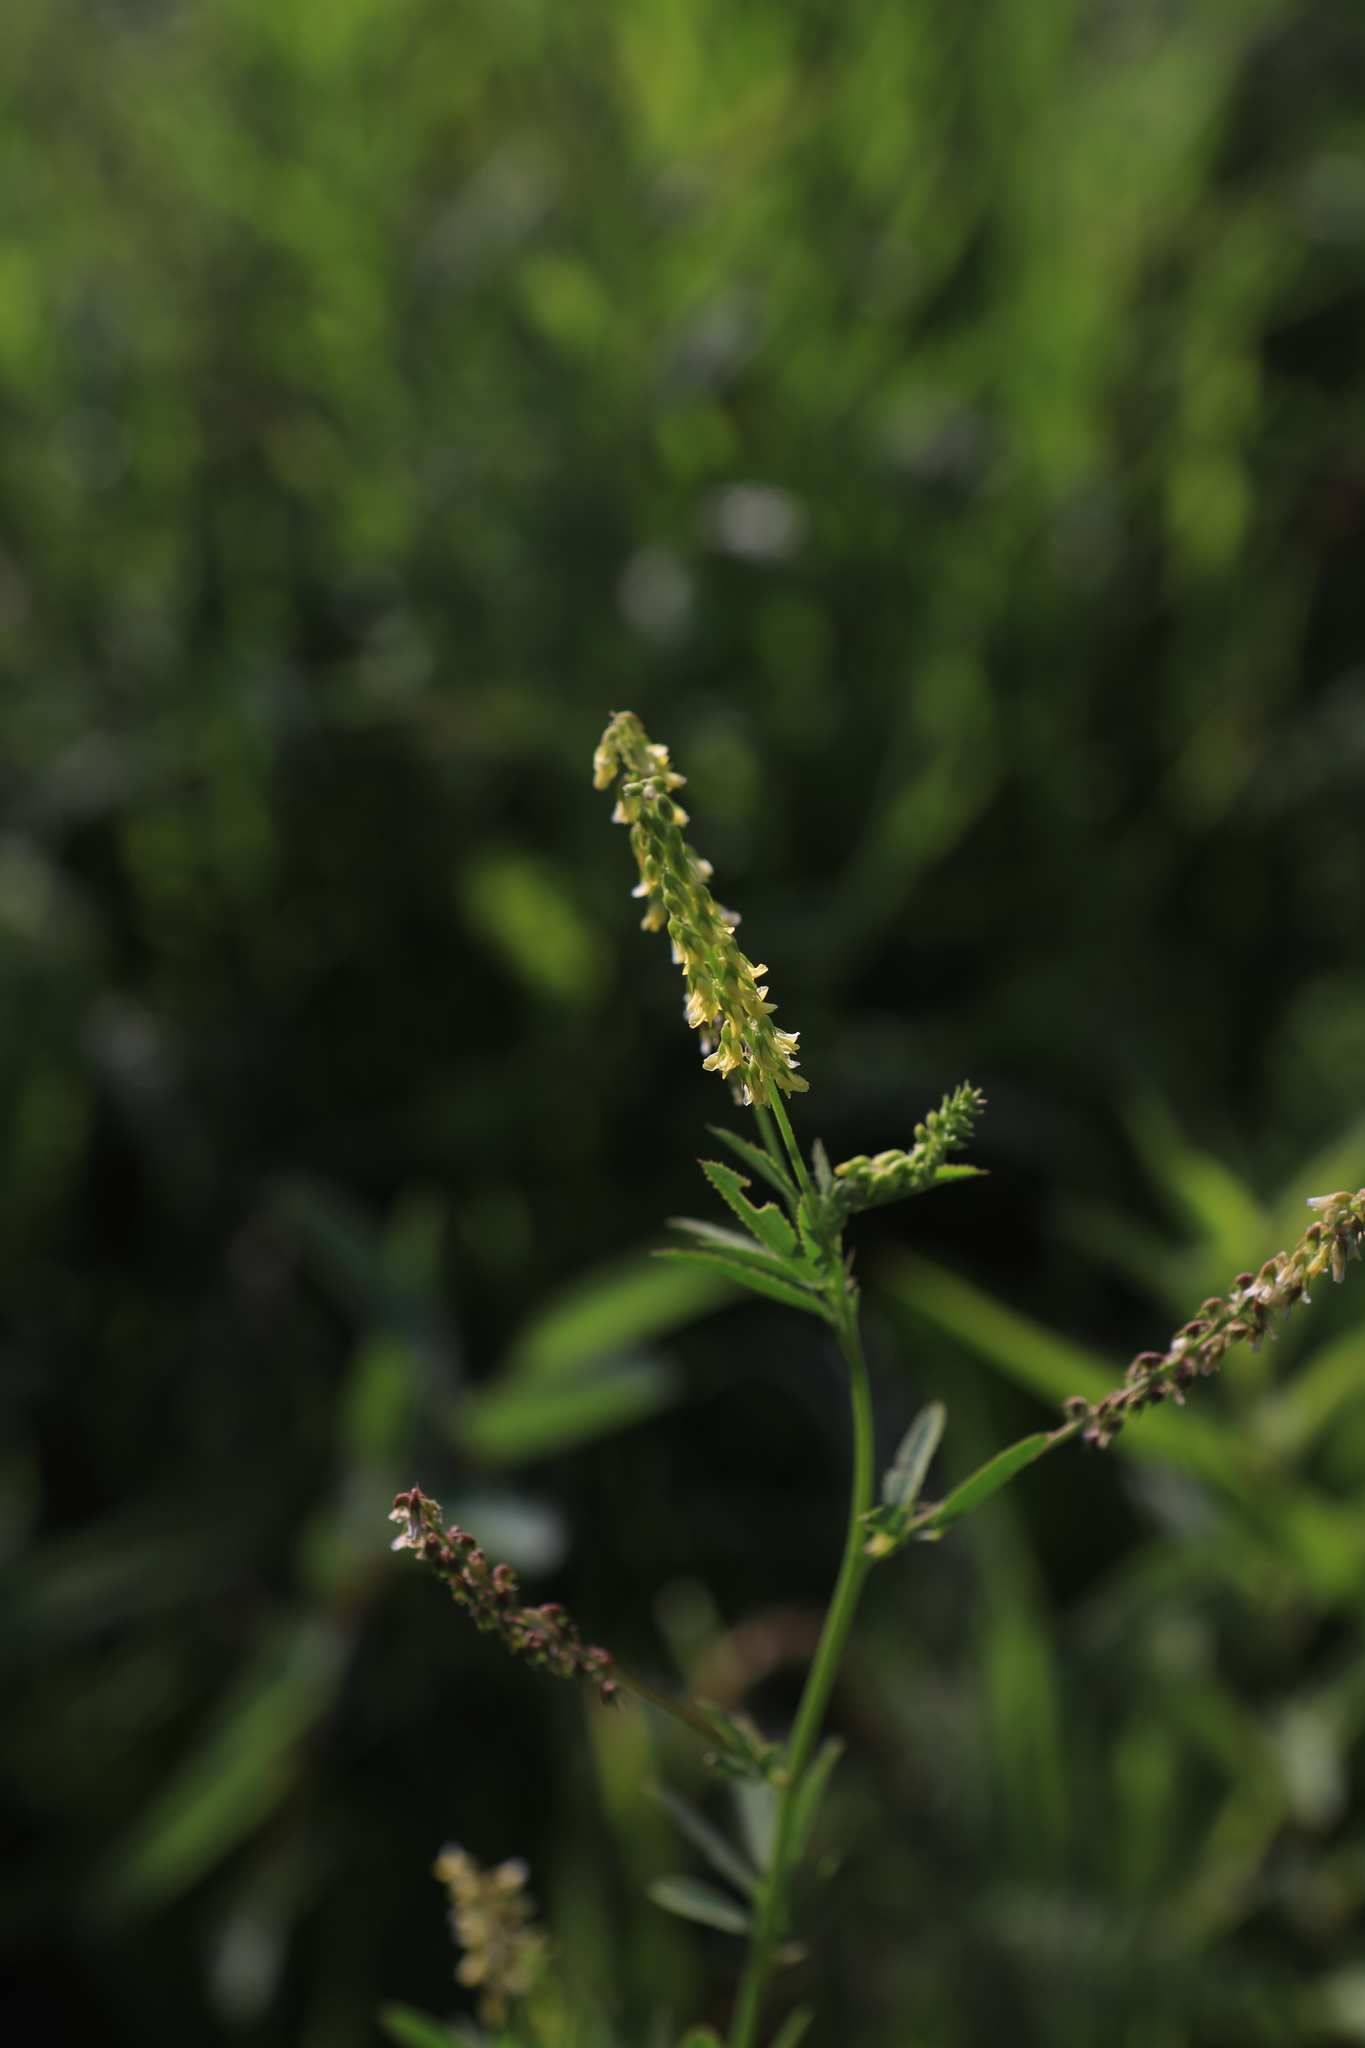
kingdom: Plantae
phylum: Tracheophyta
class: Magnoliopsida
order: Fabales
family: Fabaceae
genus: Melilotus
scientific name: Melilotus officinalis
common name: Sweetclover
